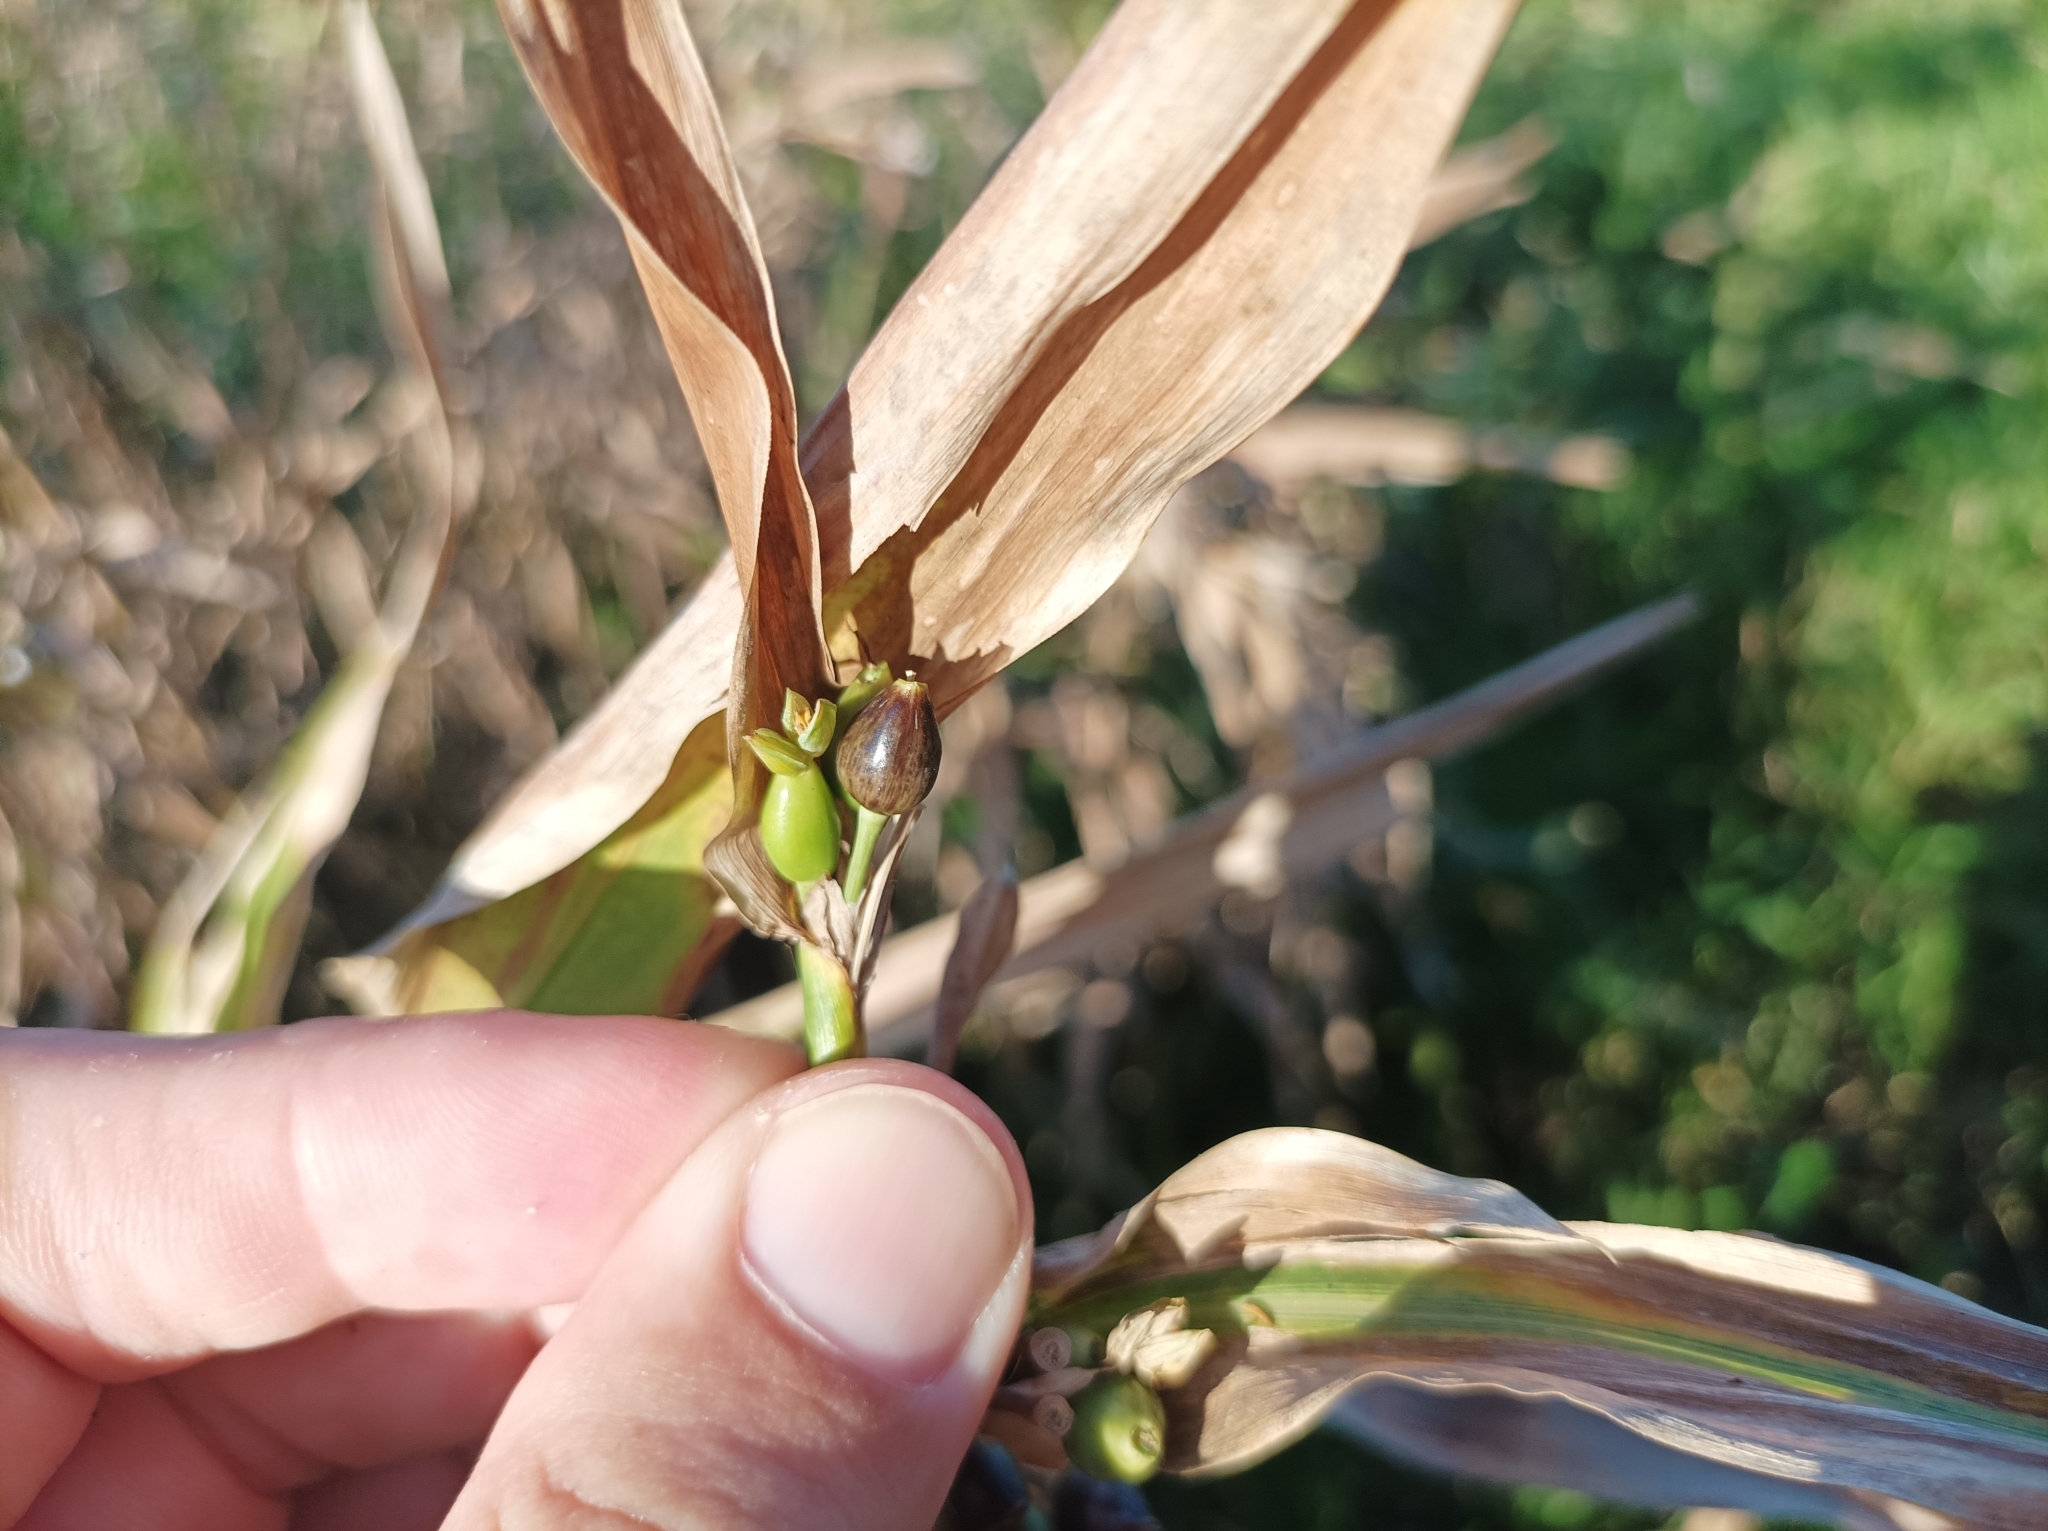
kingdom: Plantae
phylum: Tracheophyta
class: Liliopsida
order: Poales
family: Poaceae
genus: Coix
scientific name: Coix lacryma-jobi
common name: Job's tears
